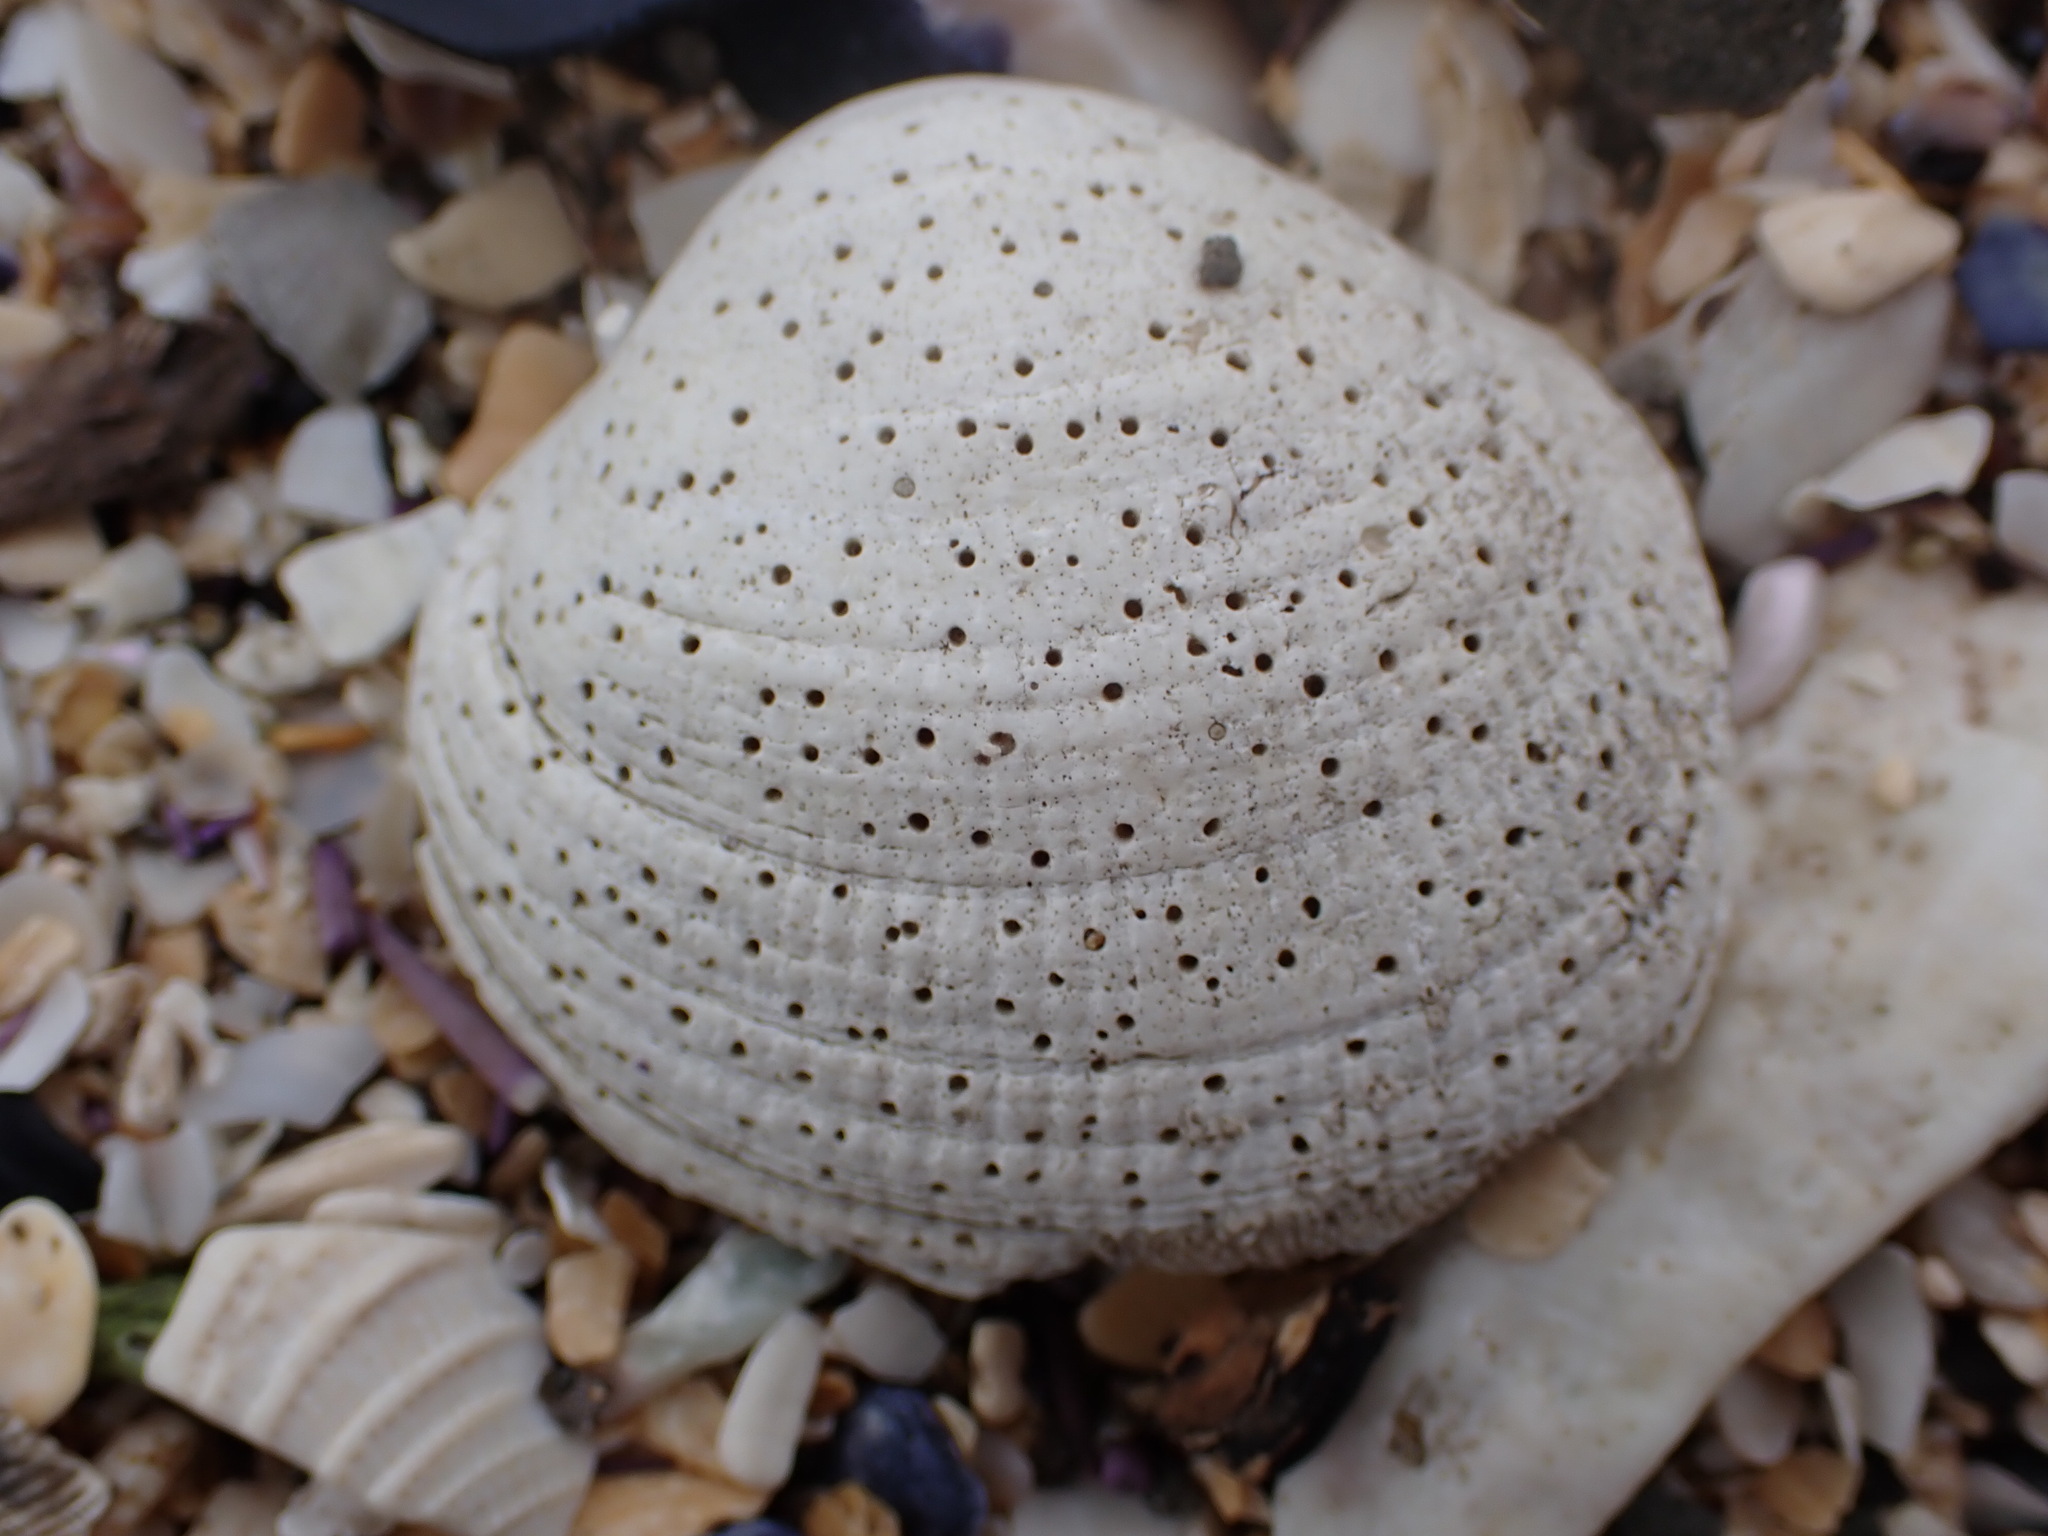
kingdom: Animalia
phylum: Porifera
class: Demospongiae
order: Clionaida
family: Clionaidae
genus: Cliona
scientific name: Cliona californiana
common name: California boring horny sponge
